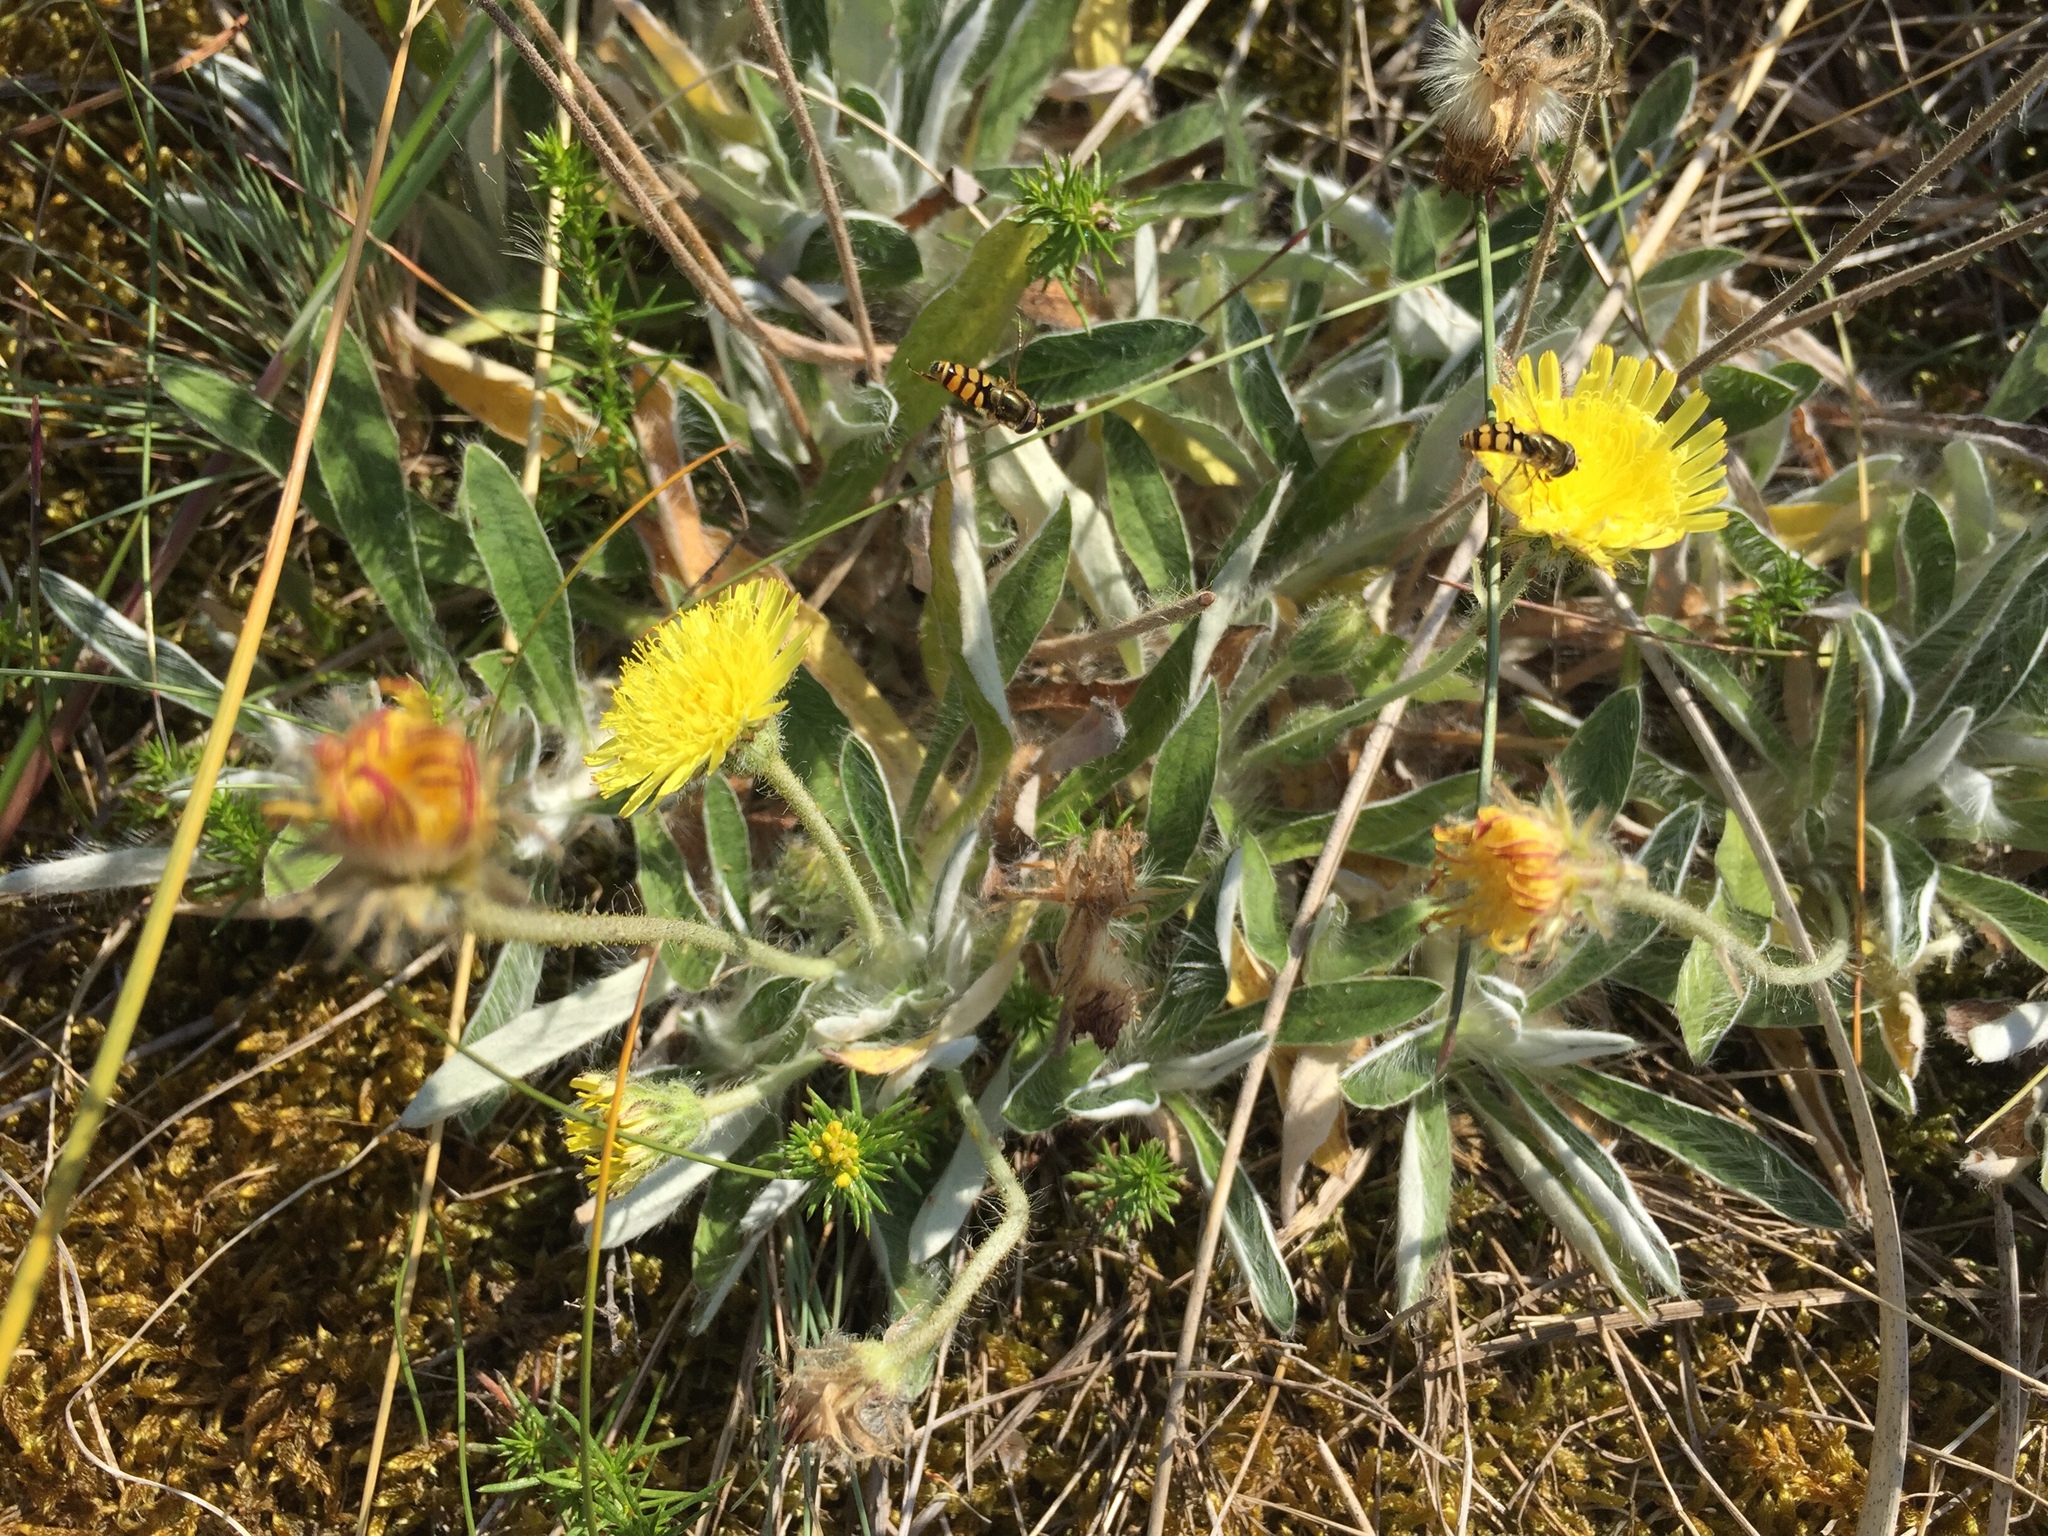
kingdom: Plantae
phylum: Tracheophyta
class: Magnoliopsida
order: Asterales
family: Asteraceae
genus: Pilosella
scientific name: Pilosella peleteriana
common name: Shaggy mouse-ear-hawkweed
